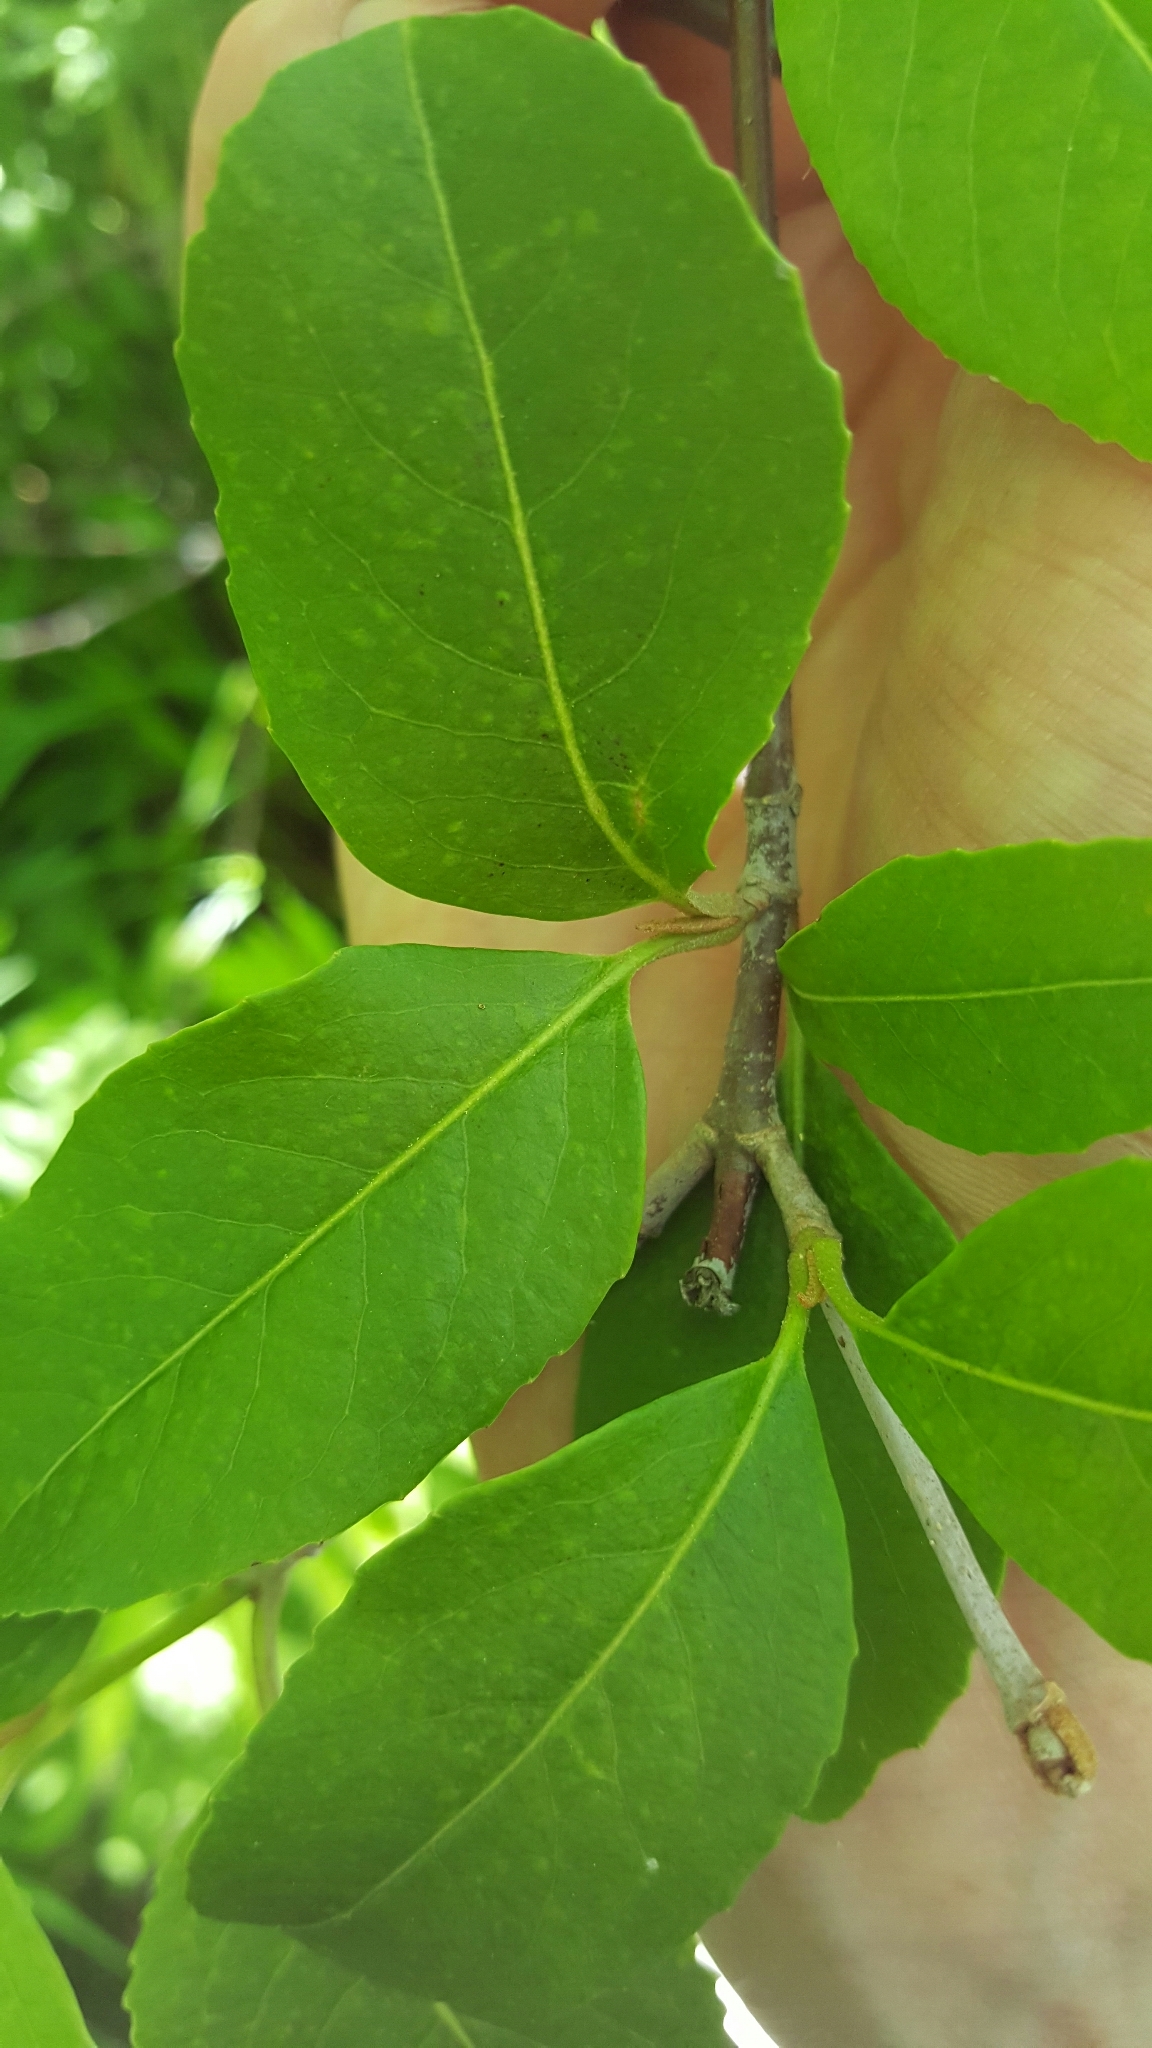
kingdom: Plantae
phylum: Tracheophyta
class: Magnoliopsida
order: Dipsacales
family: Viburnaceae
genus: Viburnum
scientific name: Viburnum cassinoides
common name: Swamp haw
